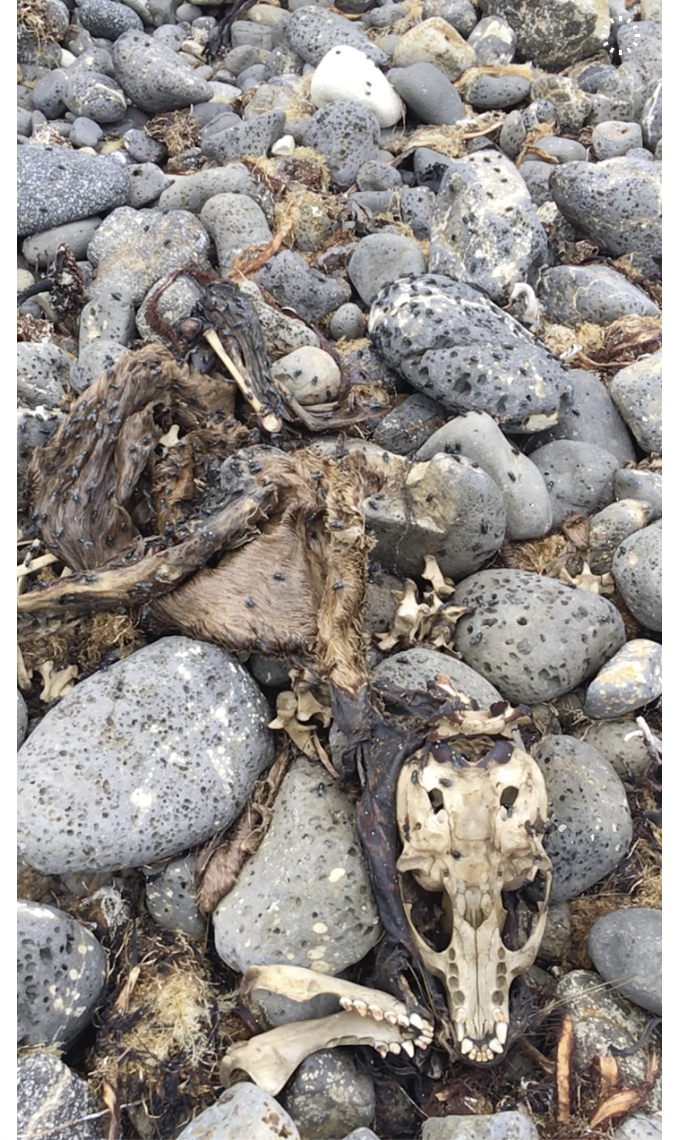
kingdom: Animalia
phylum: Chordata
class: Mammalia
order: Carnivora
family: Otariidae
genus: Zalophus
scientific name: Zalophus californianus
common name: California sea lion
